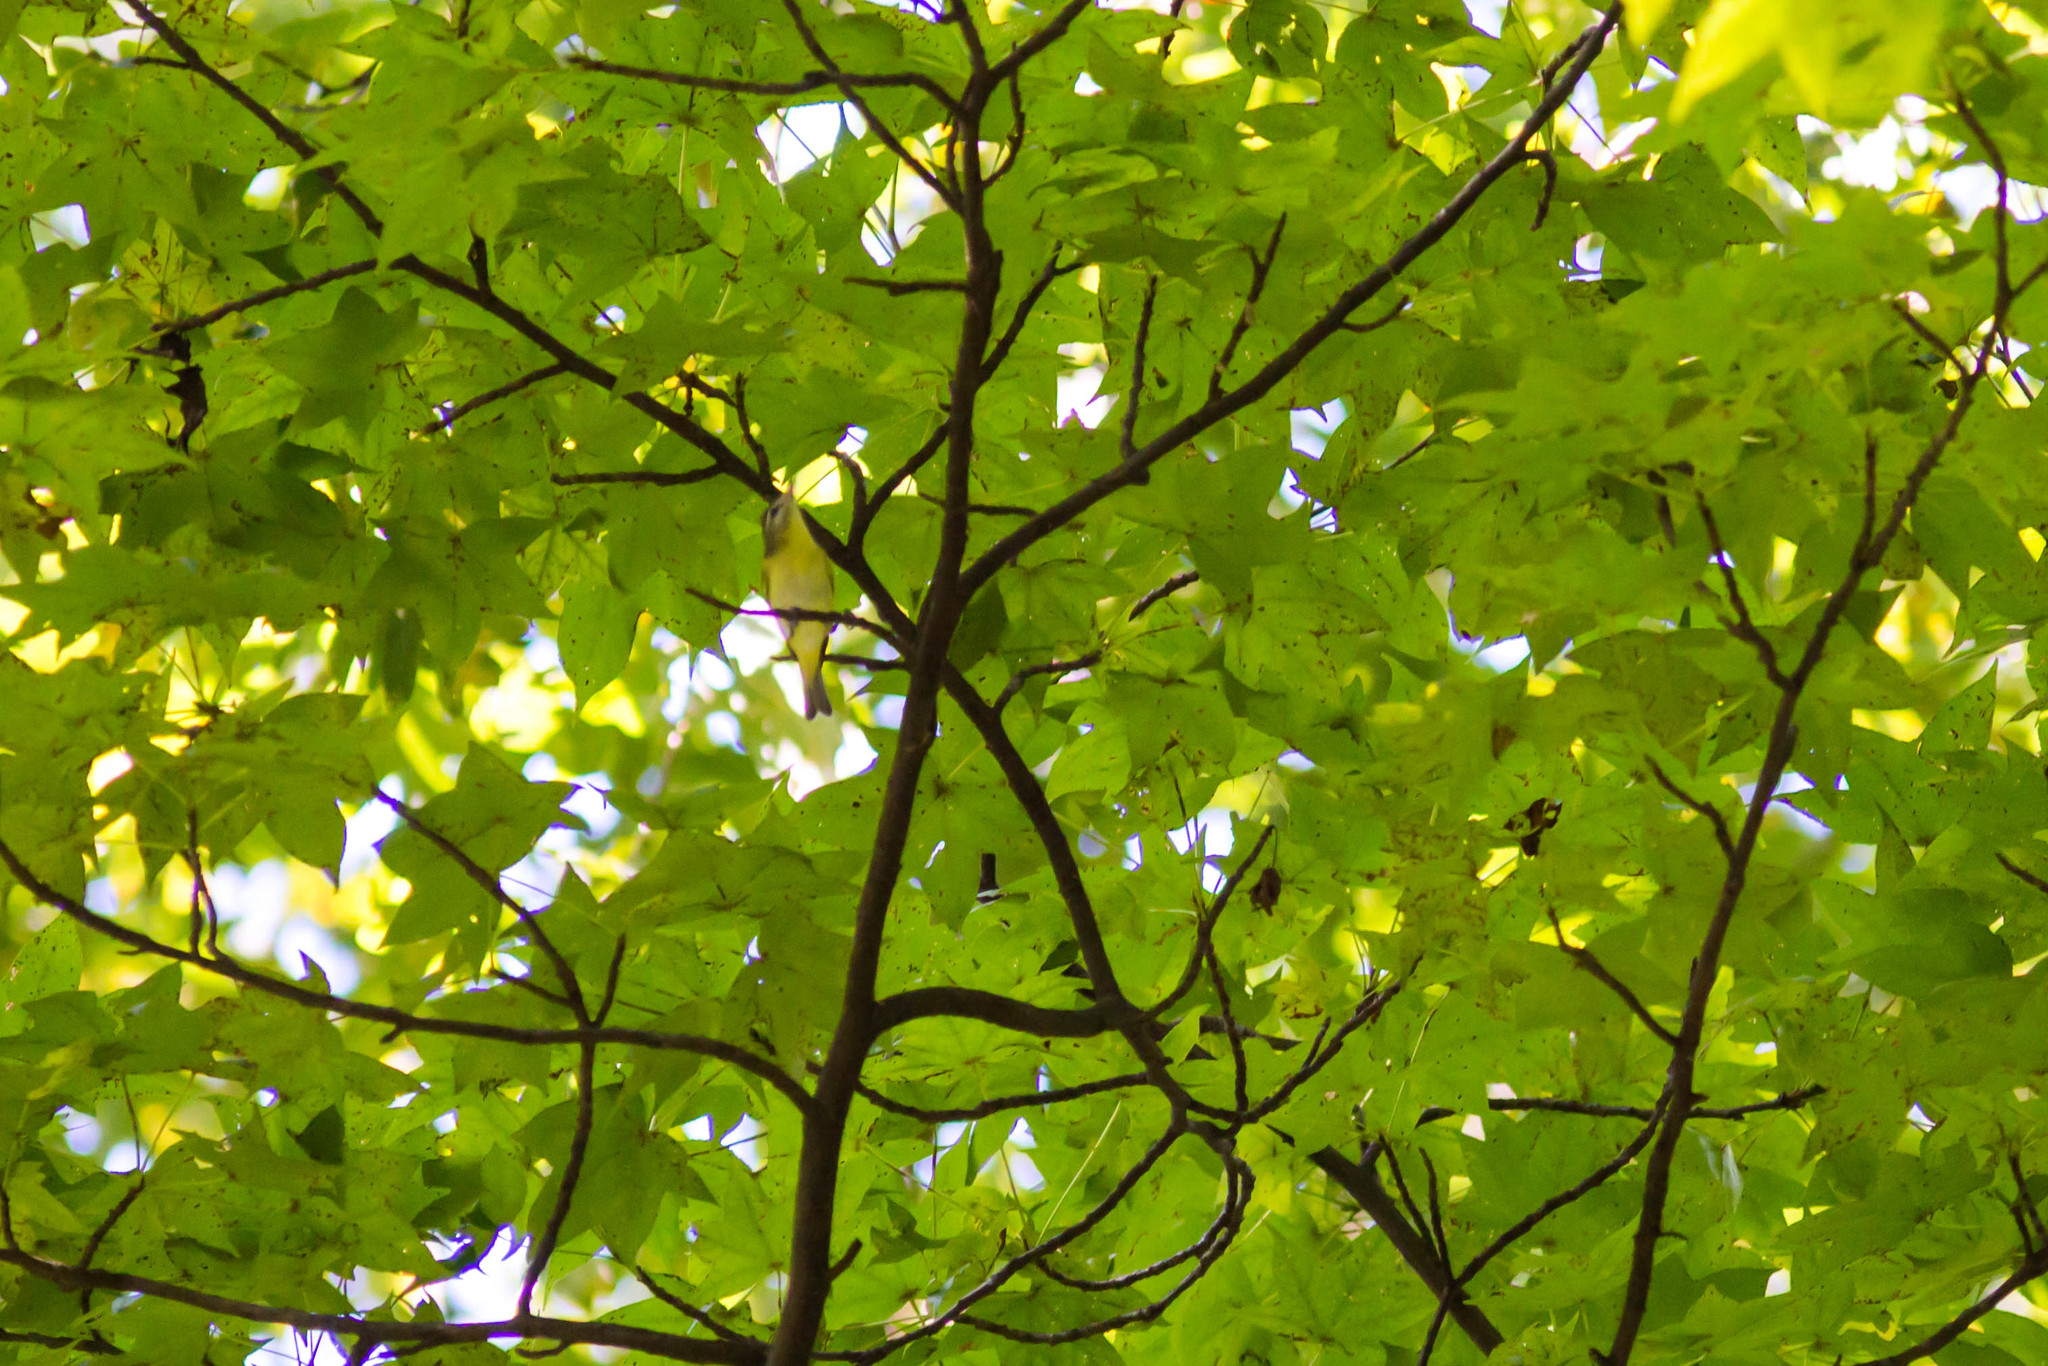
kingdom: Animalia
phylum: Chordata
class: Aves
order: Passeriformes
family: Vireonidae
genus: Vireo
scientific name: Vireo philadelphicus
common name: Philadelphia vireo
